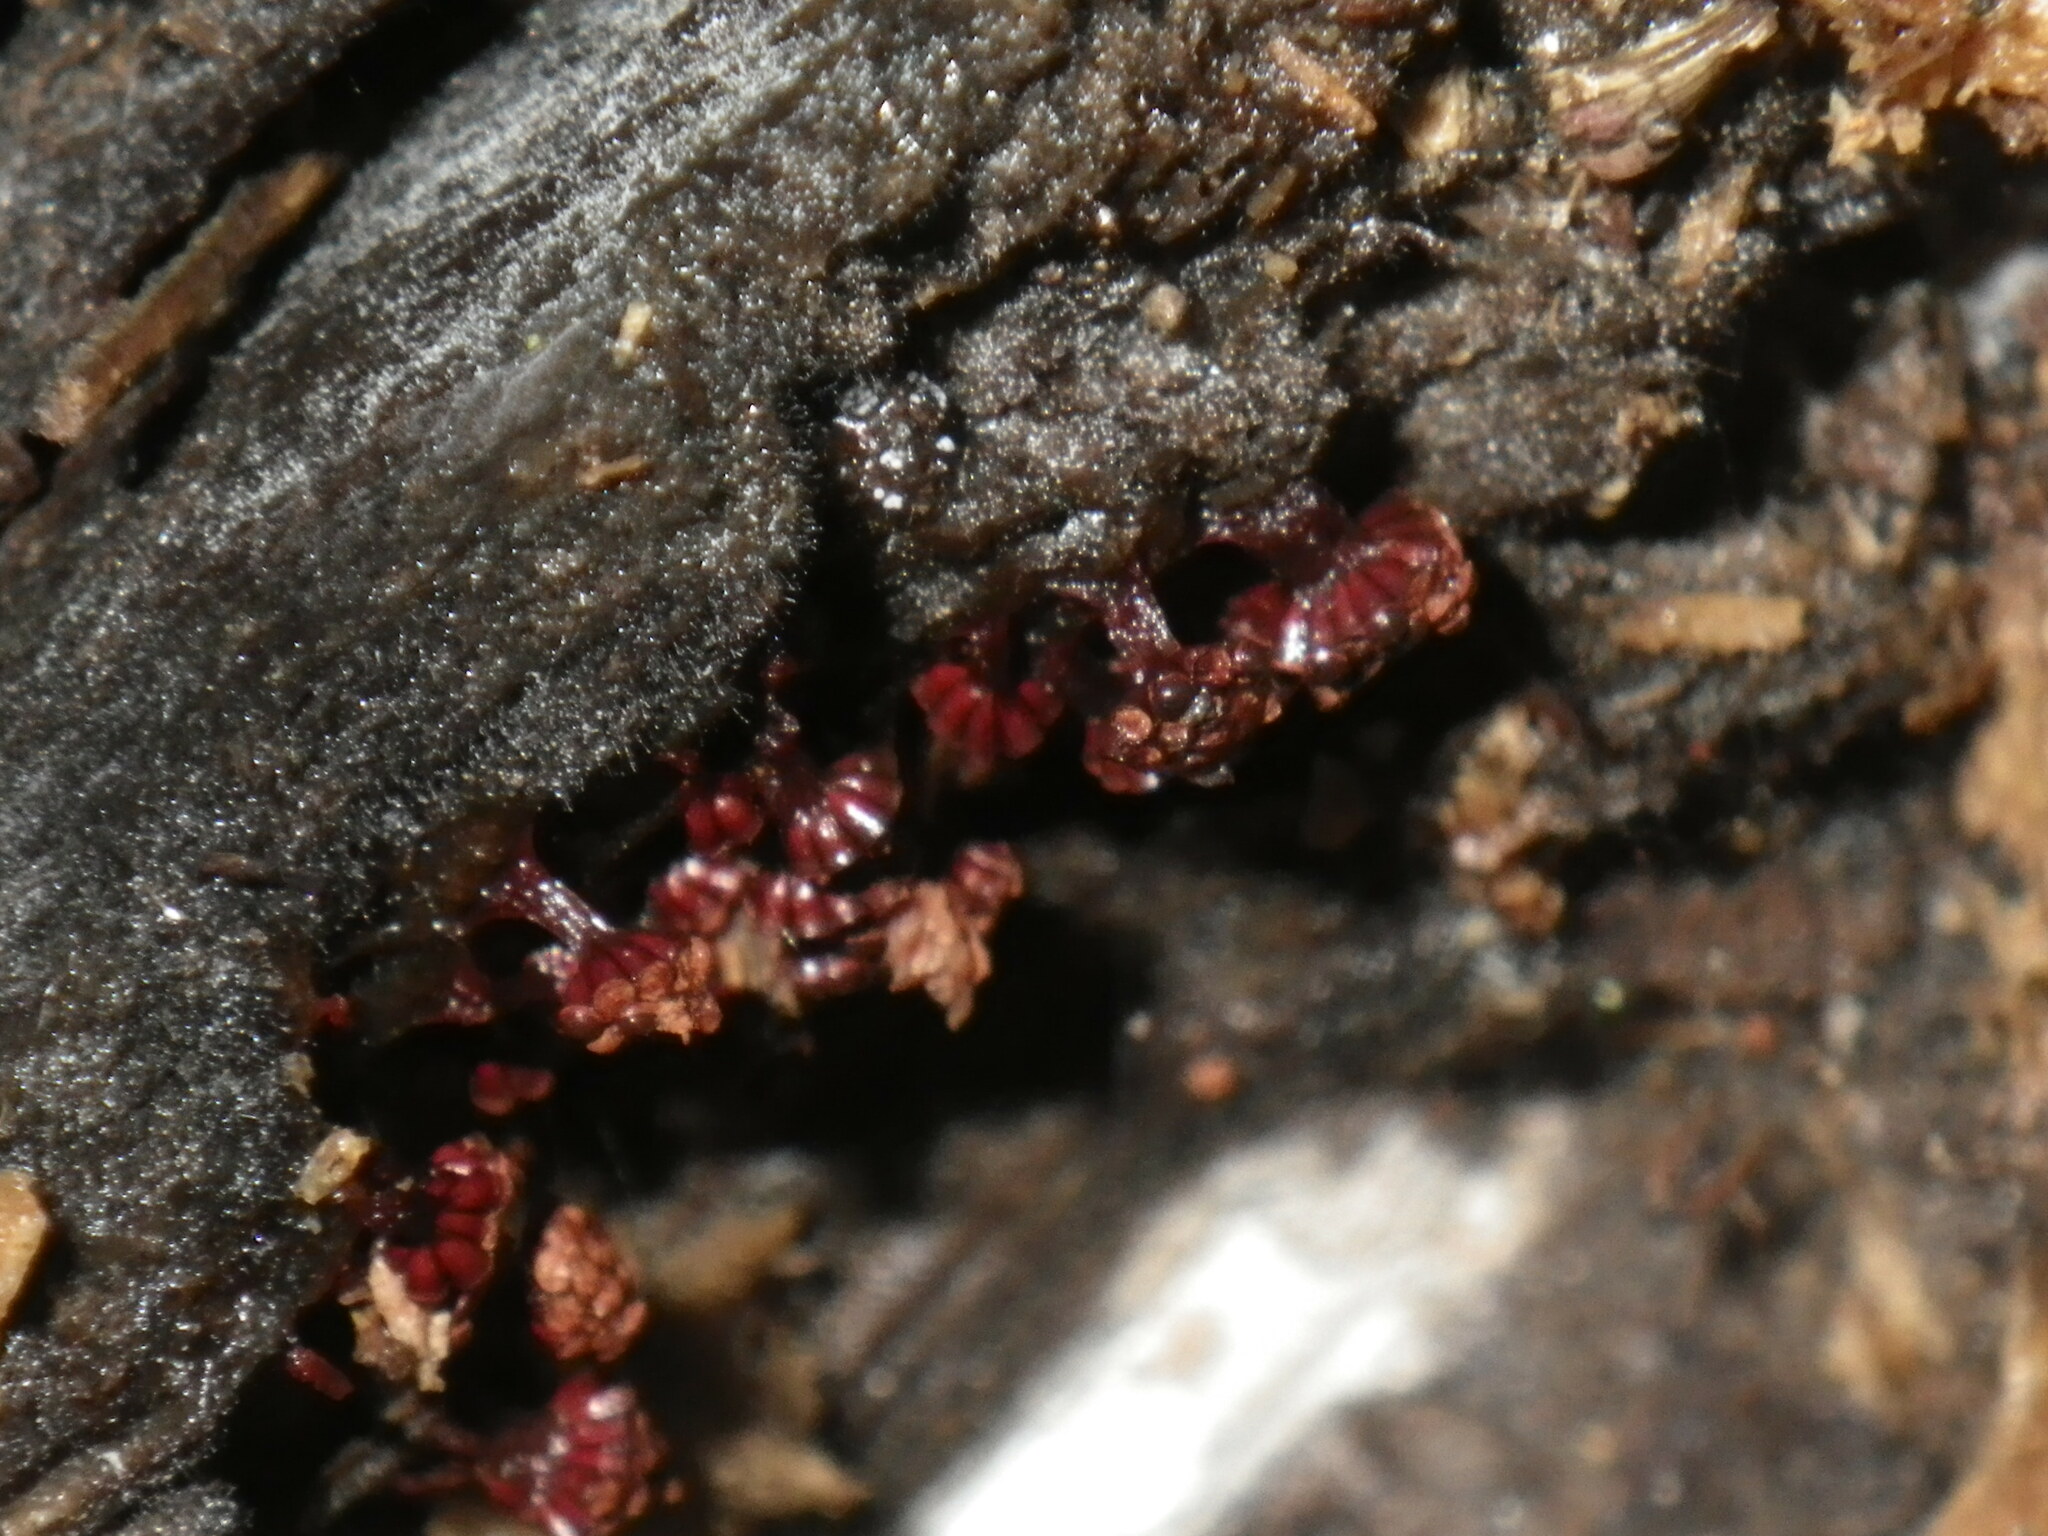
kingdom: Protozoa
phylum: Mycetozoa
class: Myxomycetes
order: Trichiales
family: Trichiaceae
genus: Metatrichia
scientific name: Metatrichia vesparia
